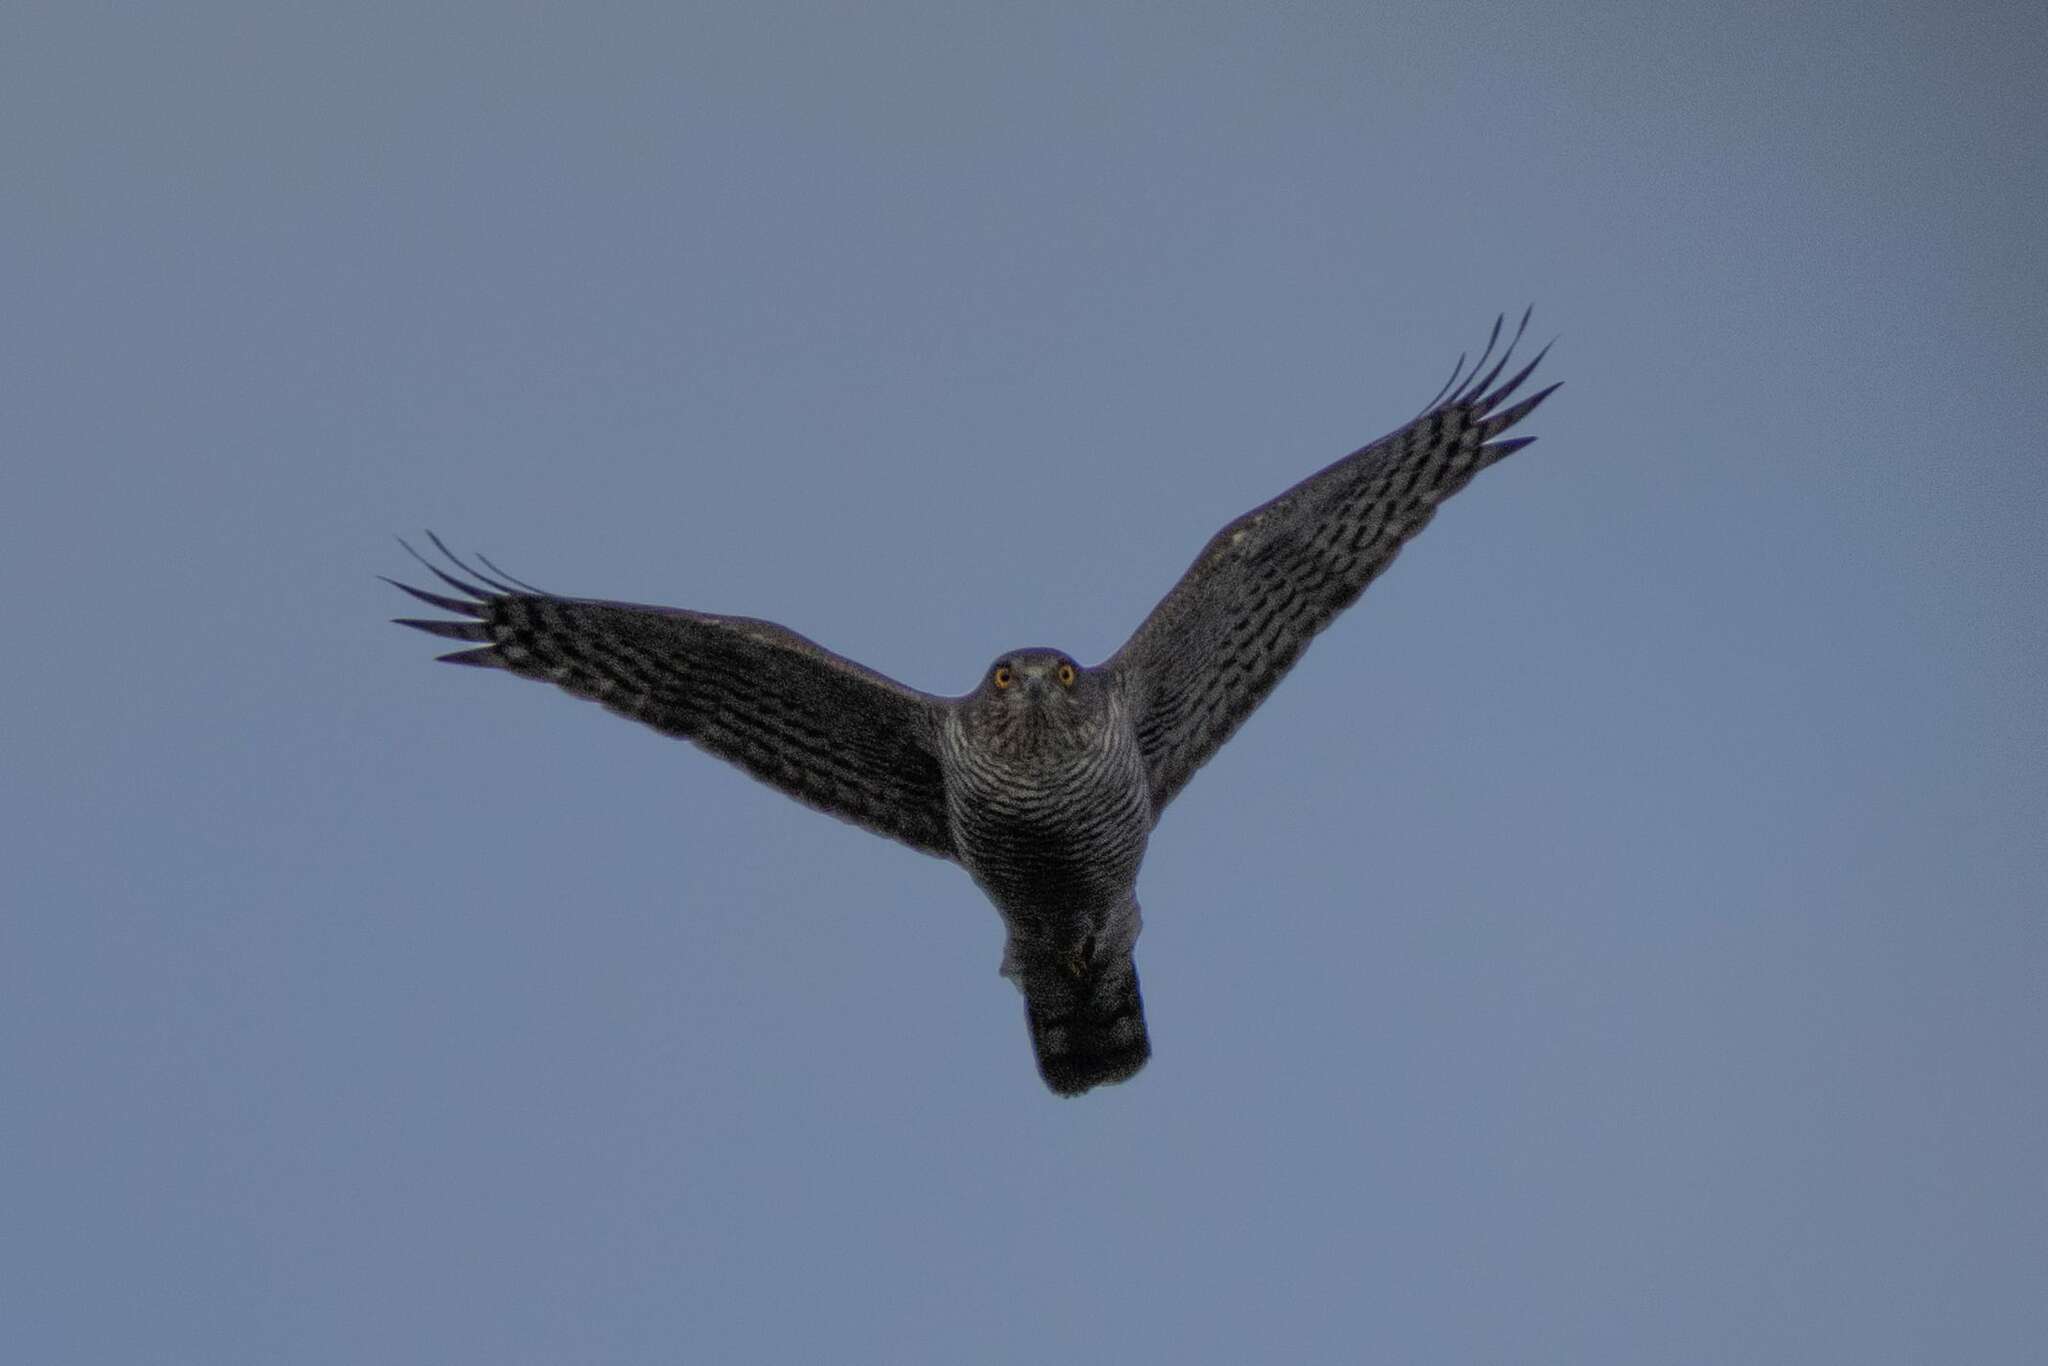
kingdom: Animalia
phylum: Chordata
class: Aves
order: Accipitriformes
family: Accipitridae
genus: Accipiter
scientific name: Accipiter nisus
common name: Eurasian sparrowhawk
